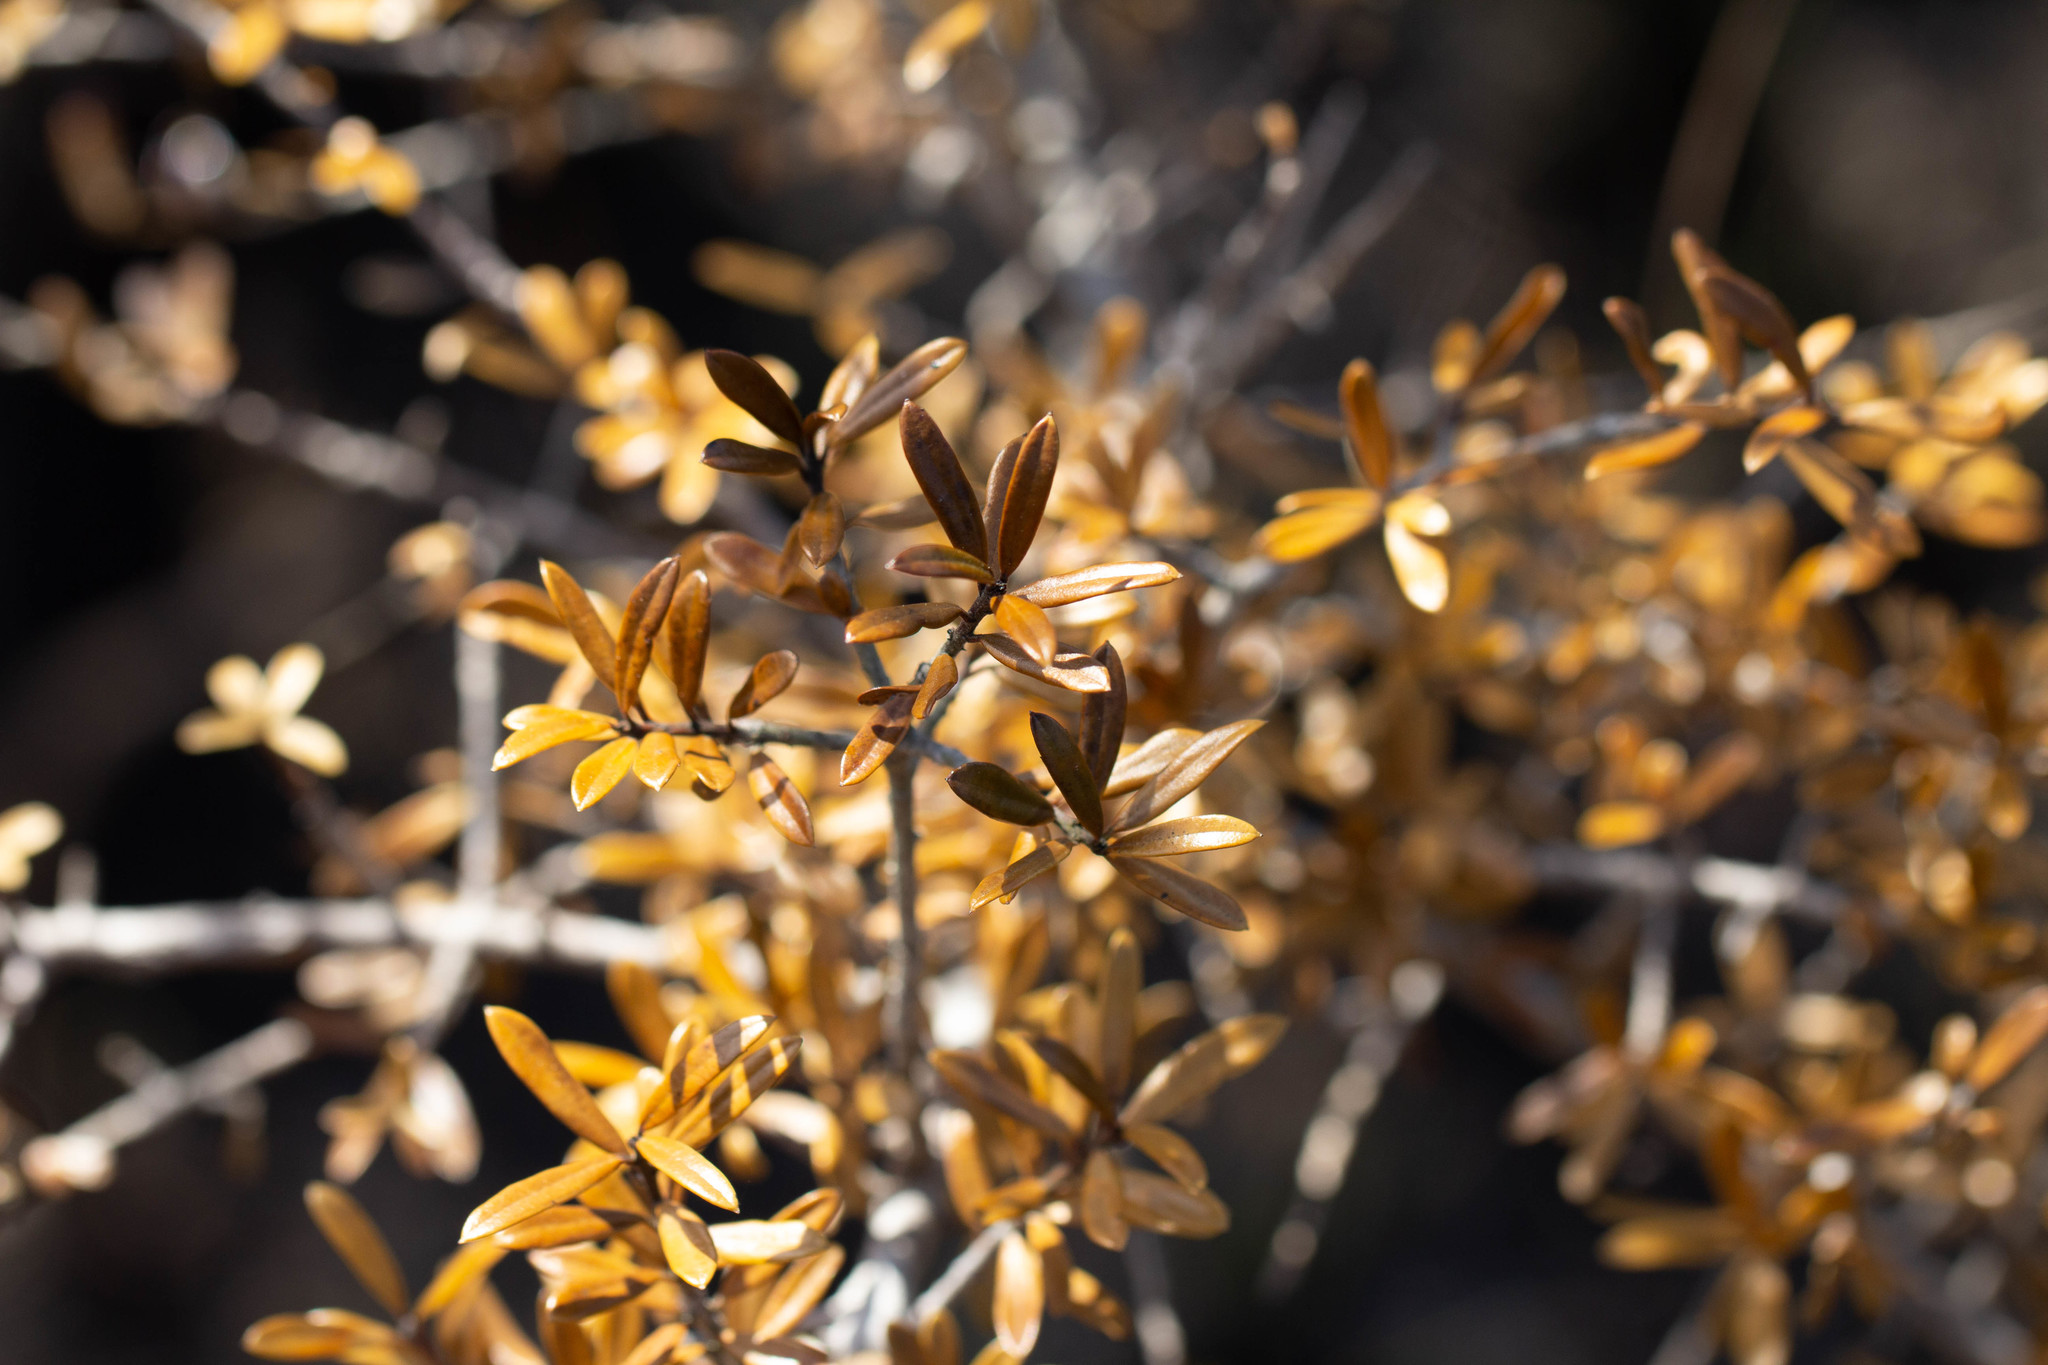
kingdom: Plantae
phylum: Tracheophyta
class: Magnoliopsida
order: Aquifoliales
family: Aquifoliaceae
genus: Ilex
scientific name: Ilex myrtifolia
